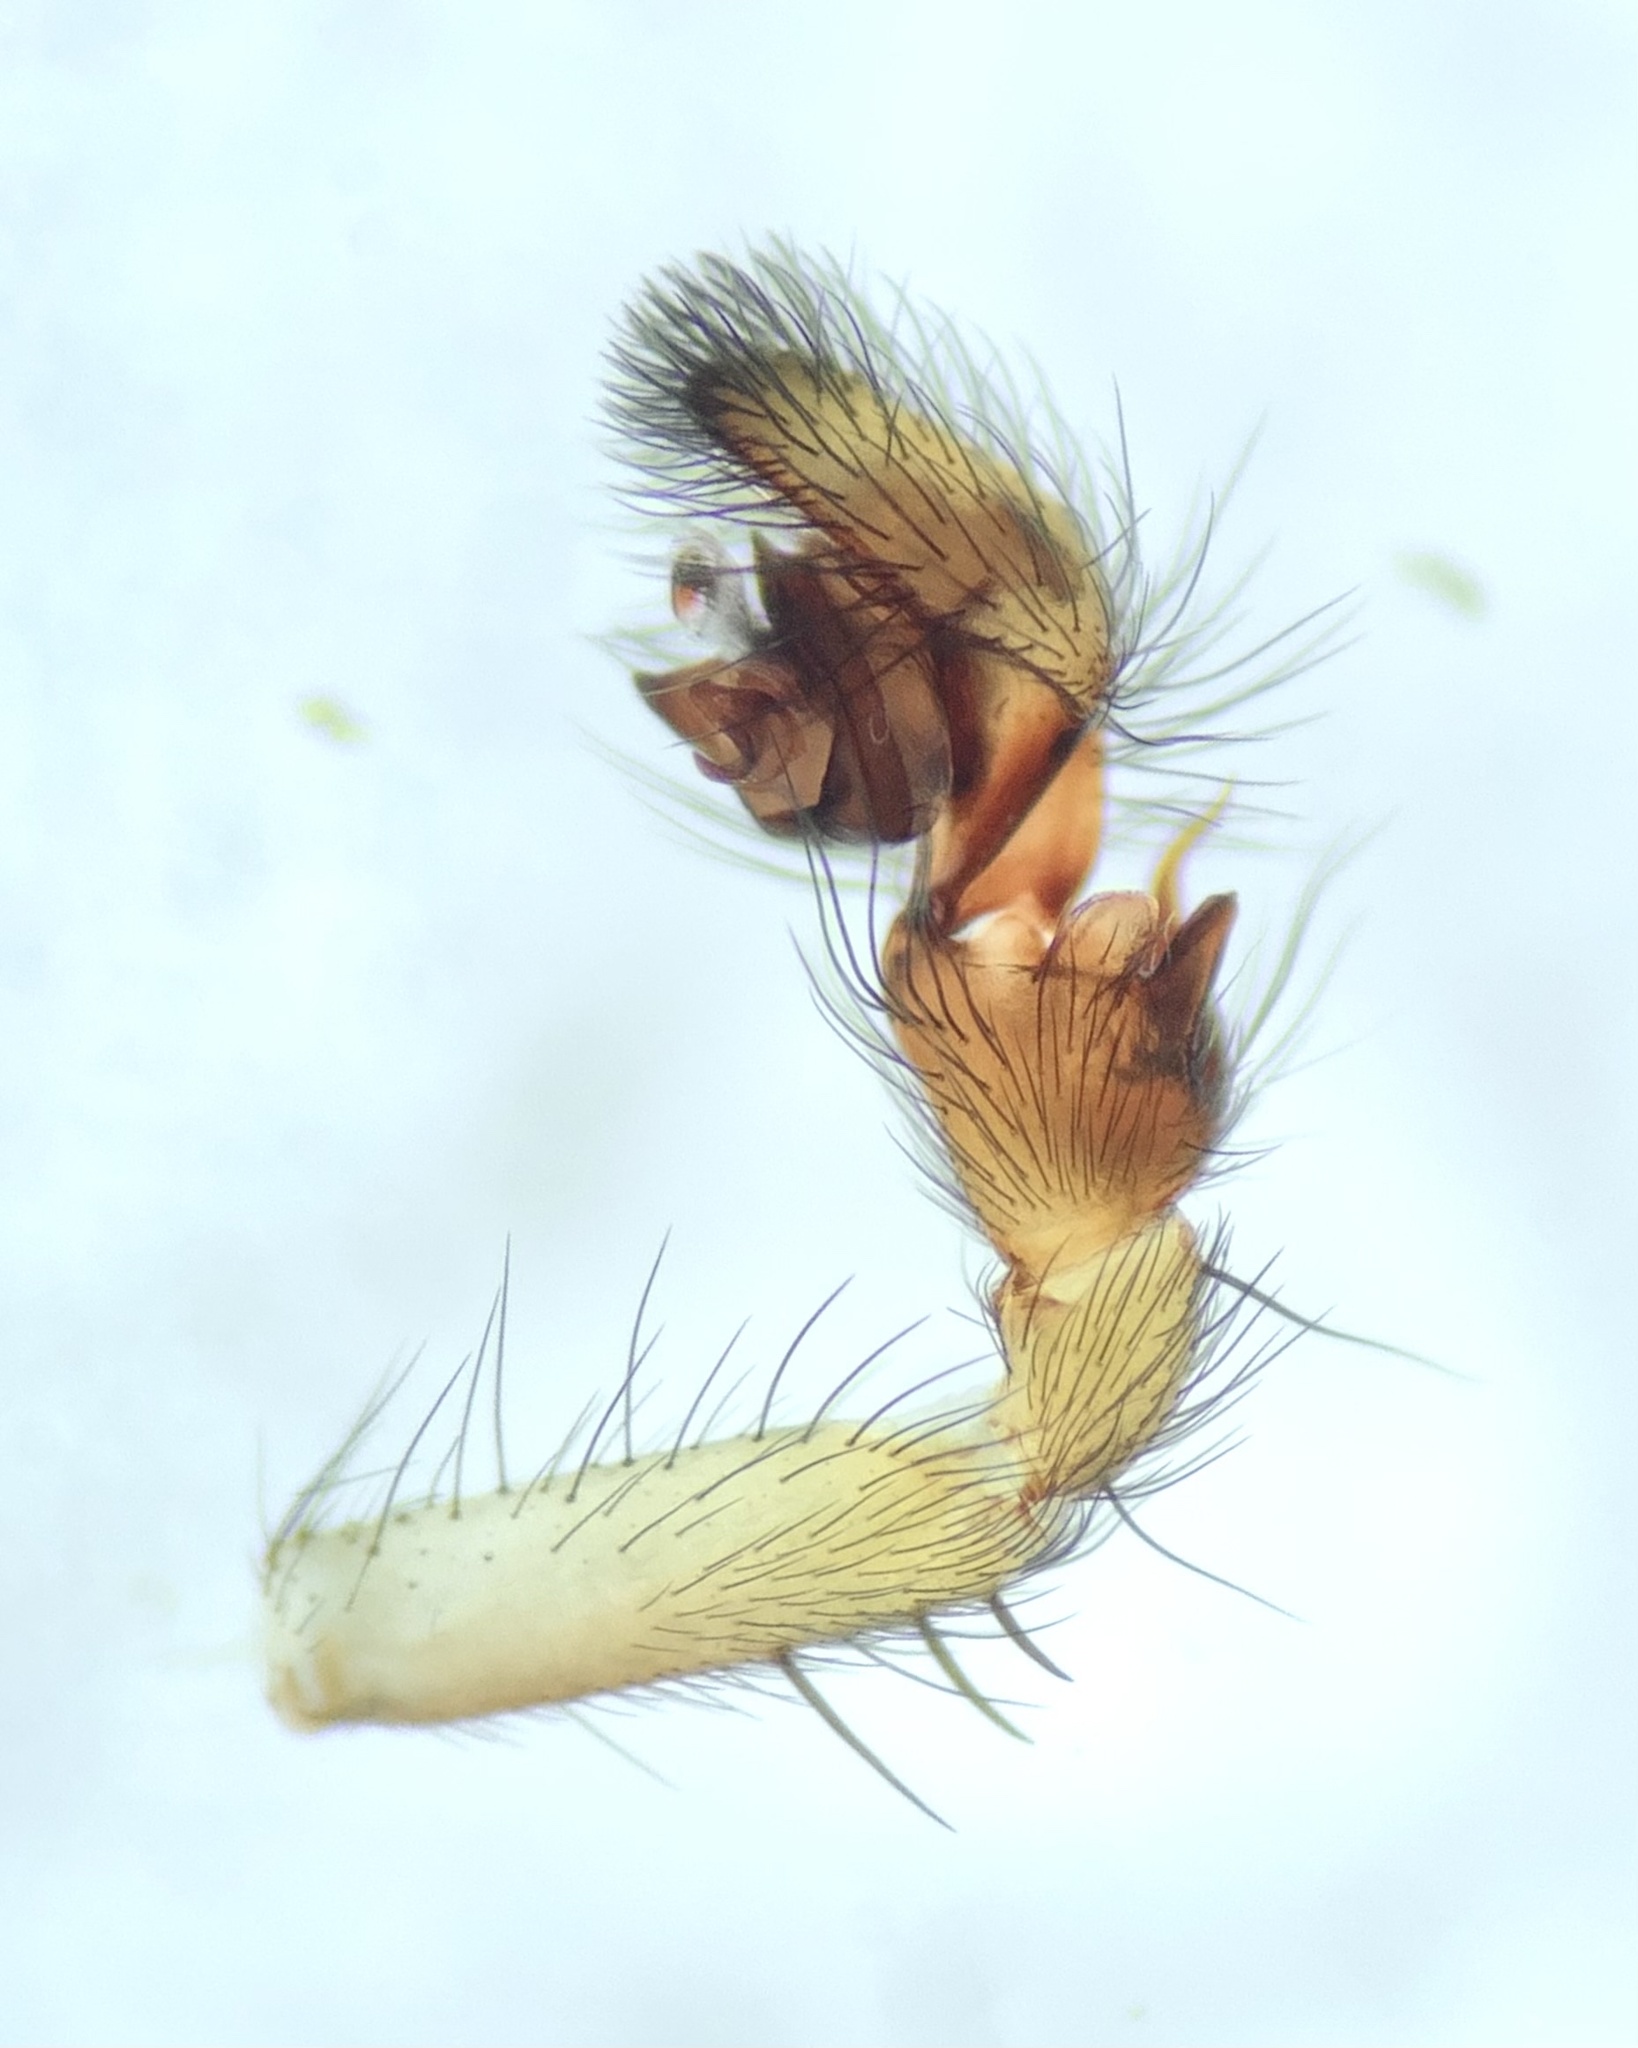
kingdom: Animalia
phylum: Arthropoda
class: Arachnida
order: Araneae
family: Amaurobiidae
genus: Amaurobius
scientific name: Amaurobius erberi
